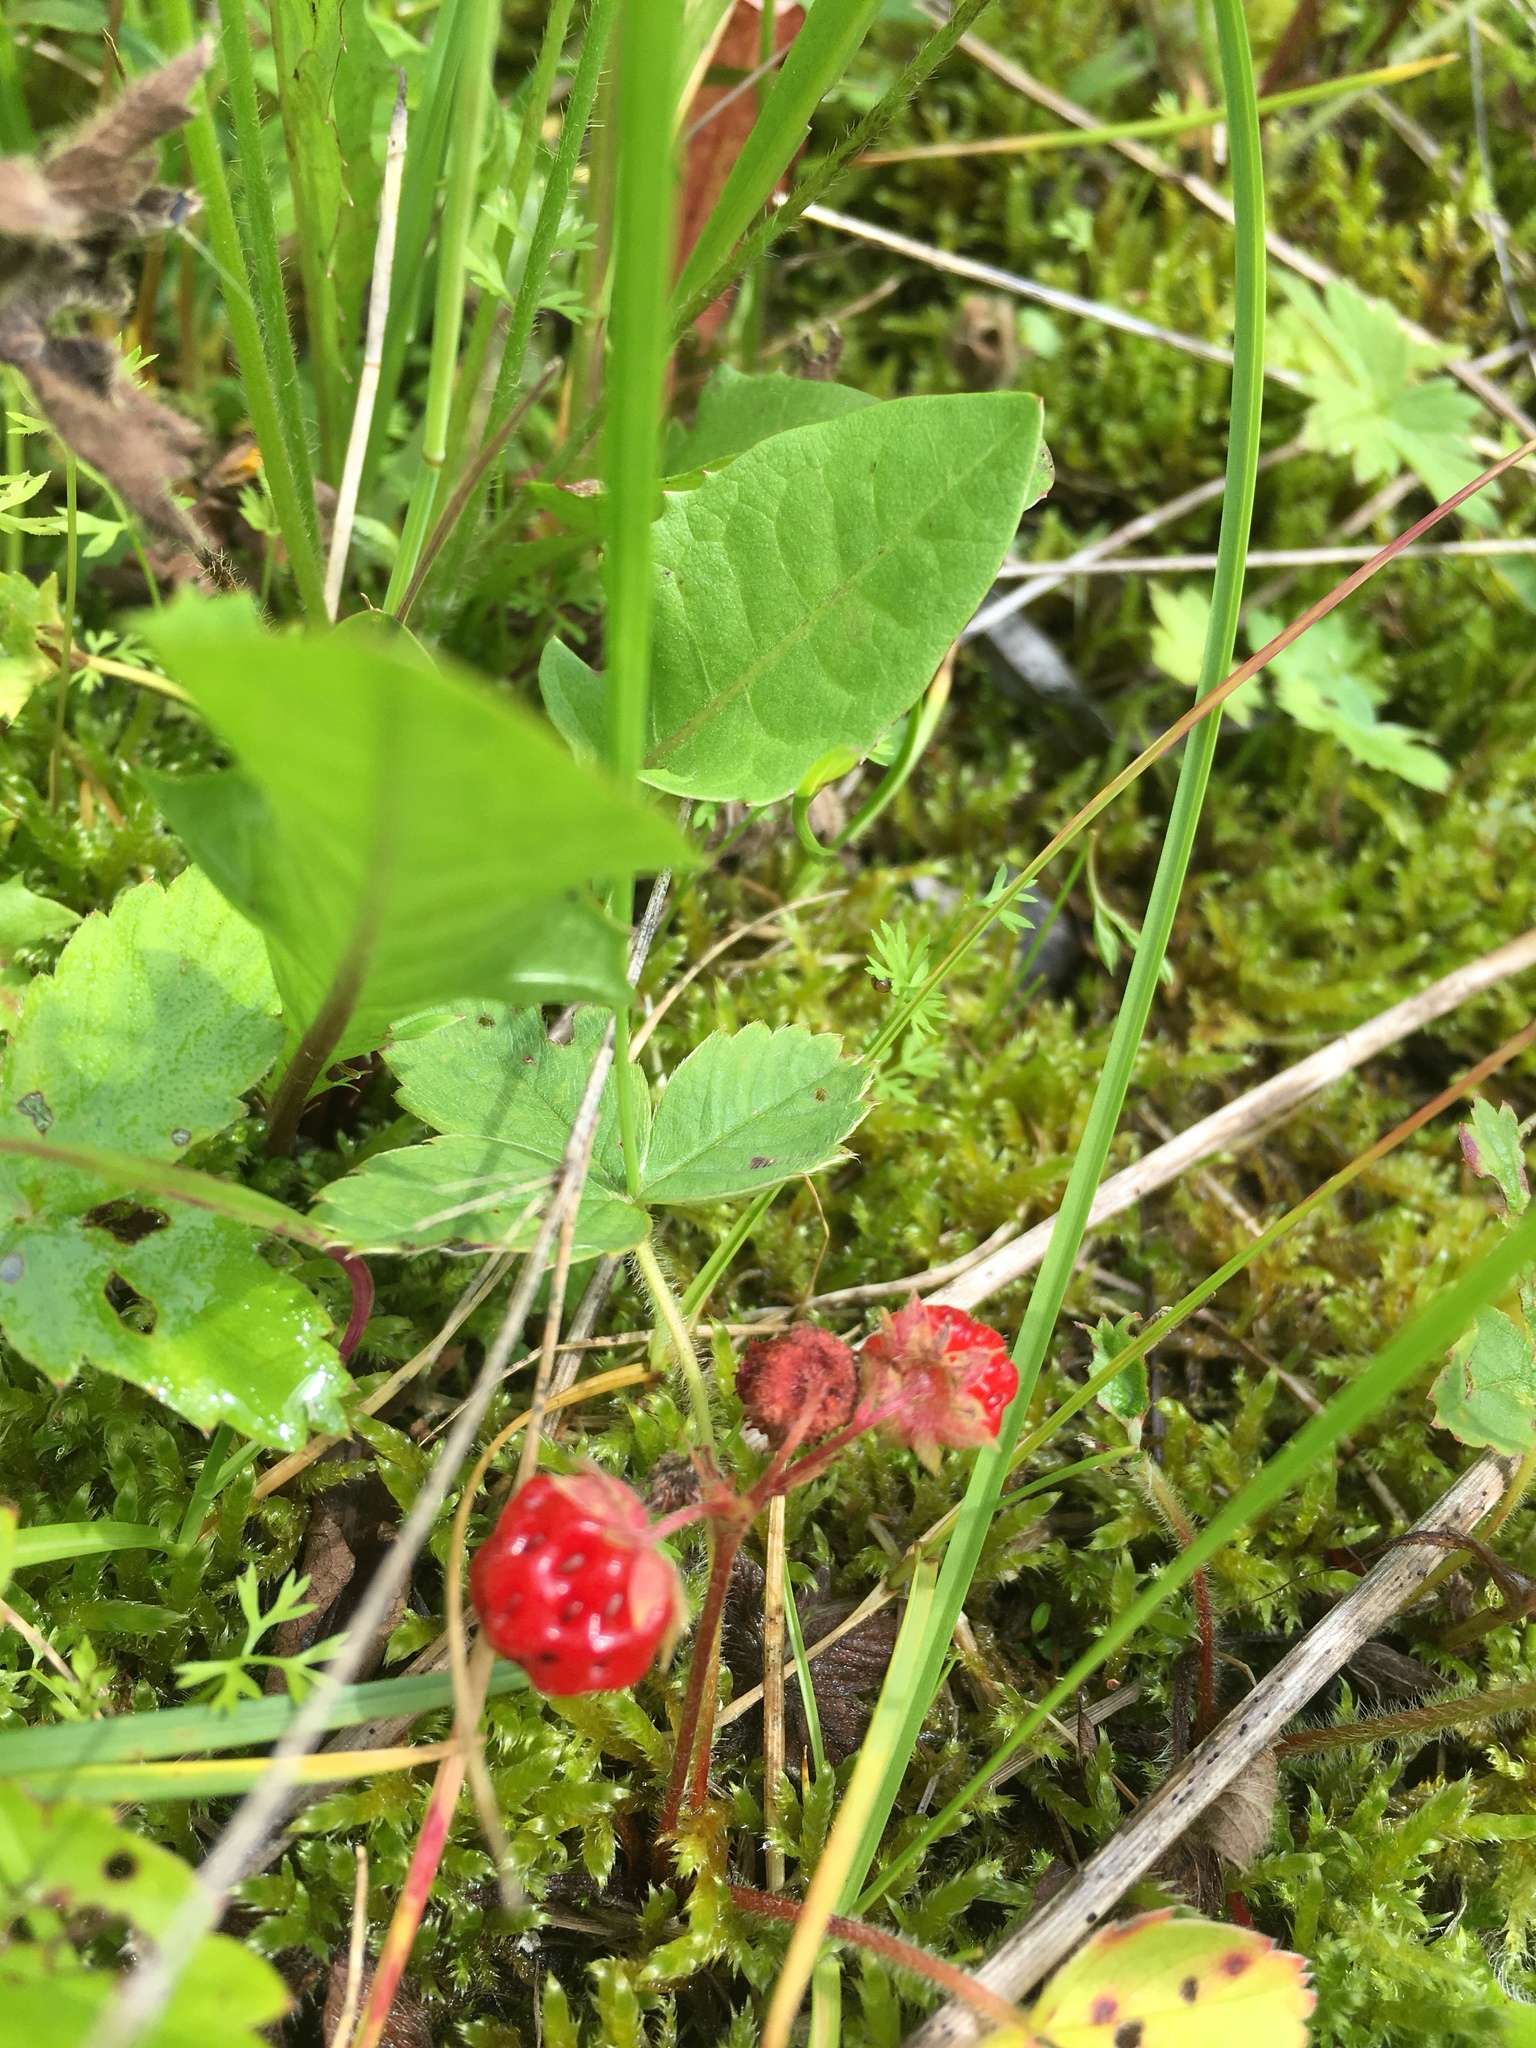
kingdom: Plantae
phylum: Tracheophyta
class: Magnoliopsida
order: Rosales
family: Rosaceae
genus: Fragaria
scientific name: Fragaria virginiana
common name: Thickleaved wild strawberry
